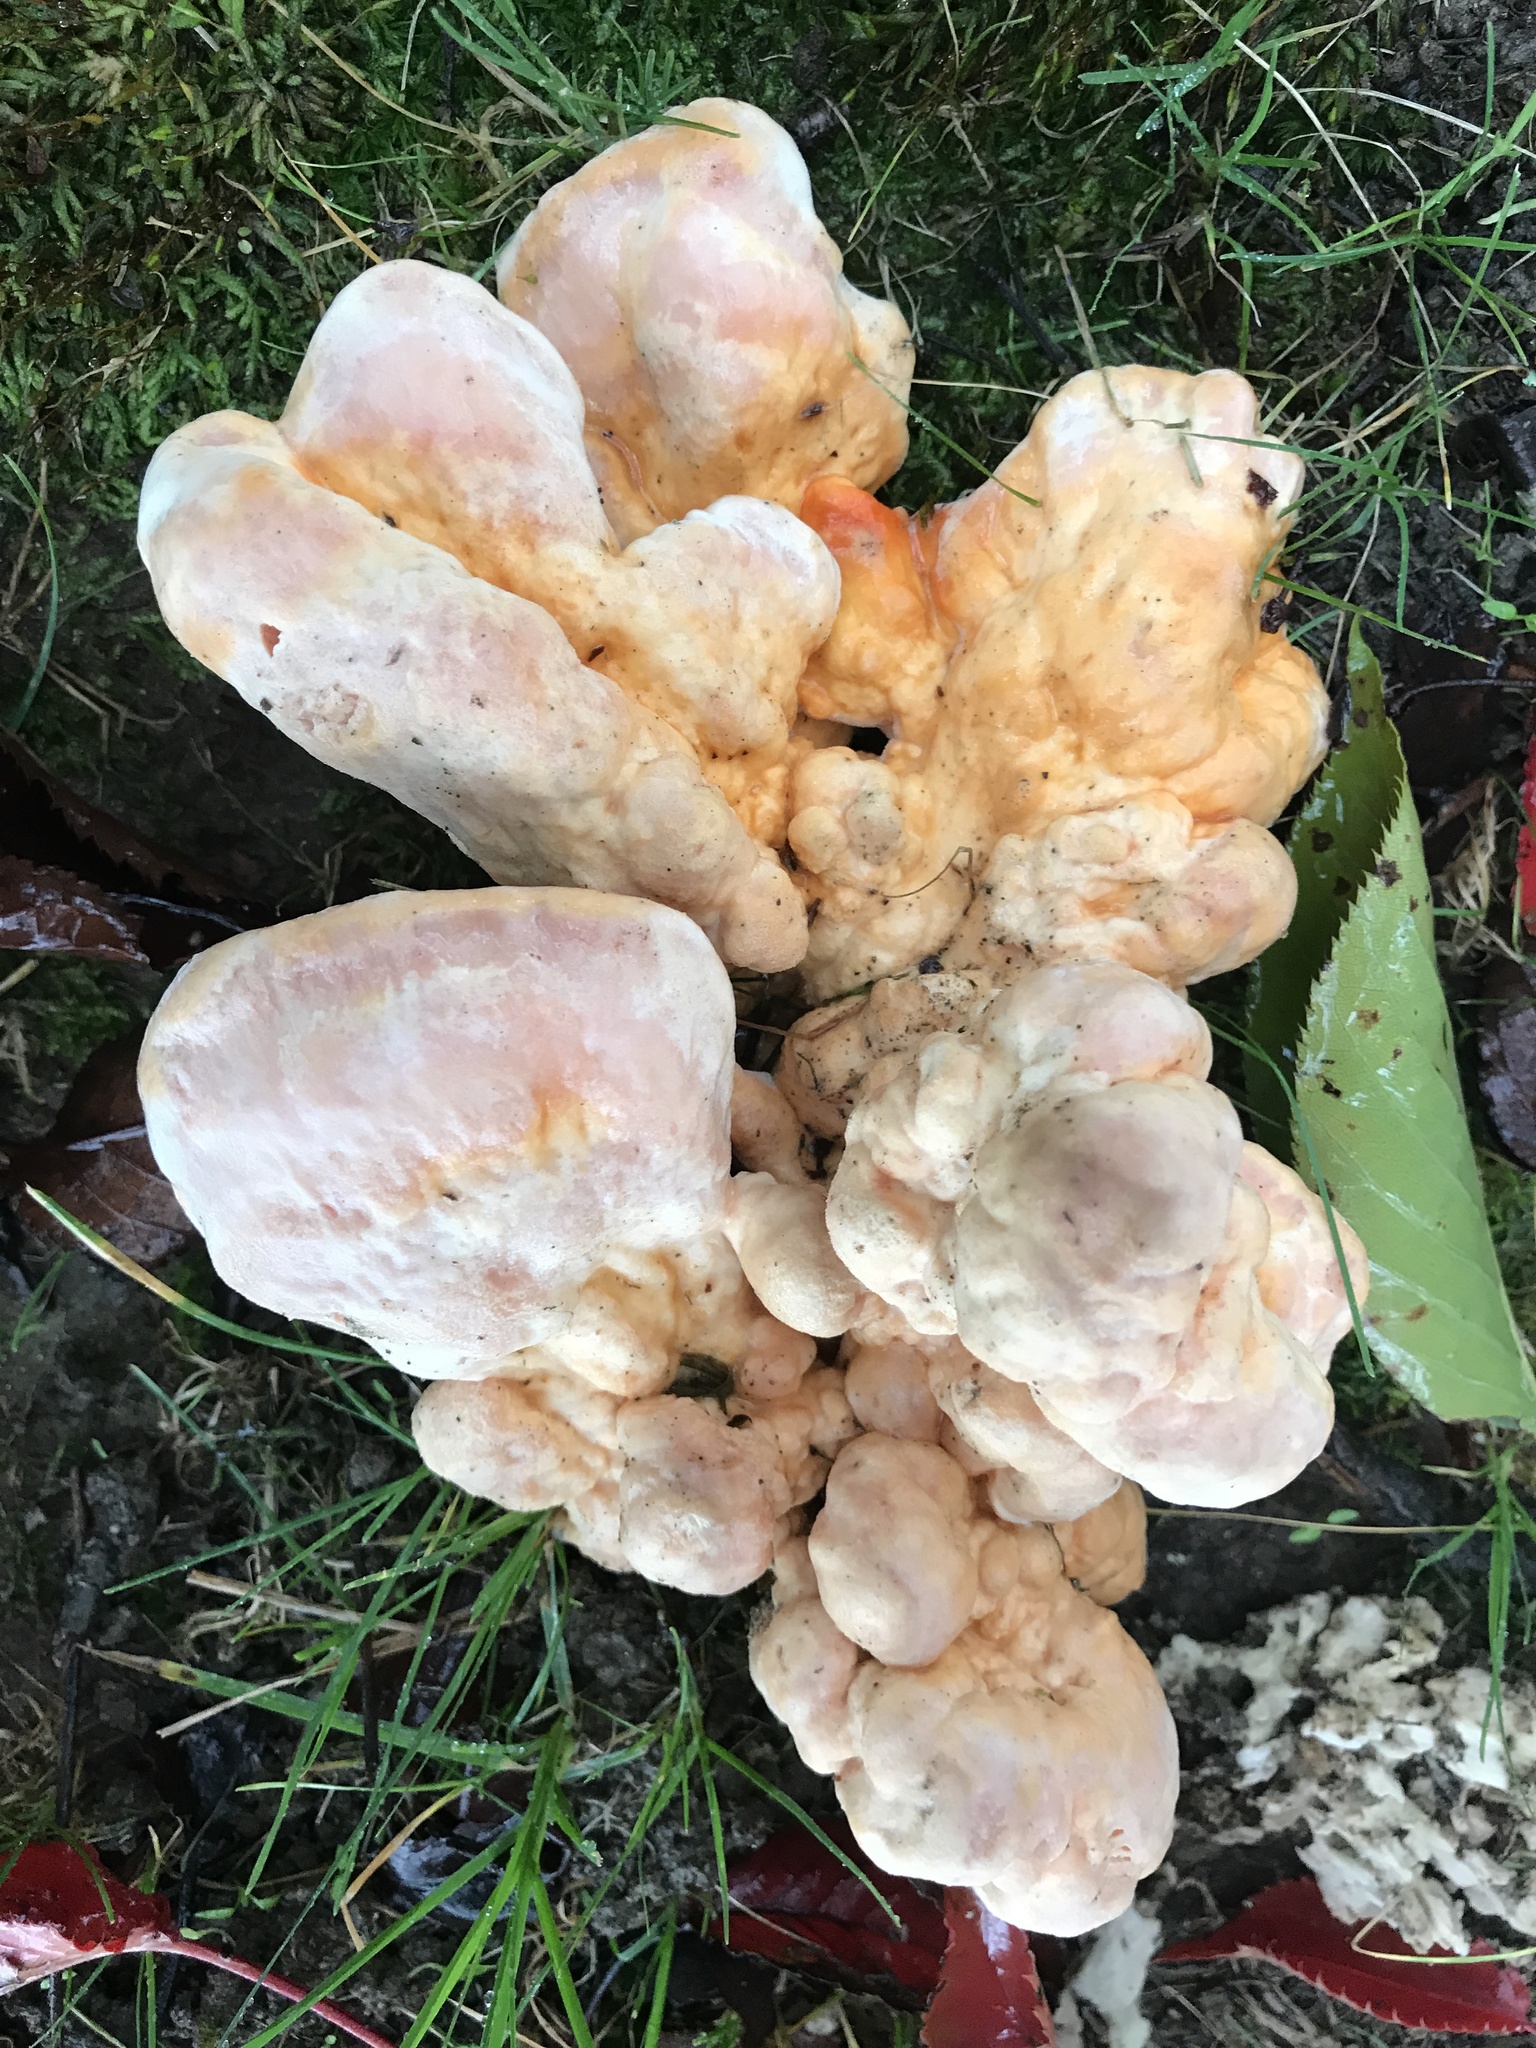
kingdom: Fungi
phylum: Basidiomycota
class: Agaricomycetes
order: Polyporales
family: Laetiporaceae
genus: Laetiporus
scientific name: Laetiporus sulphureus
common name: Chicken of the woods
